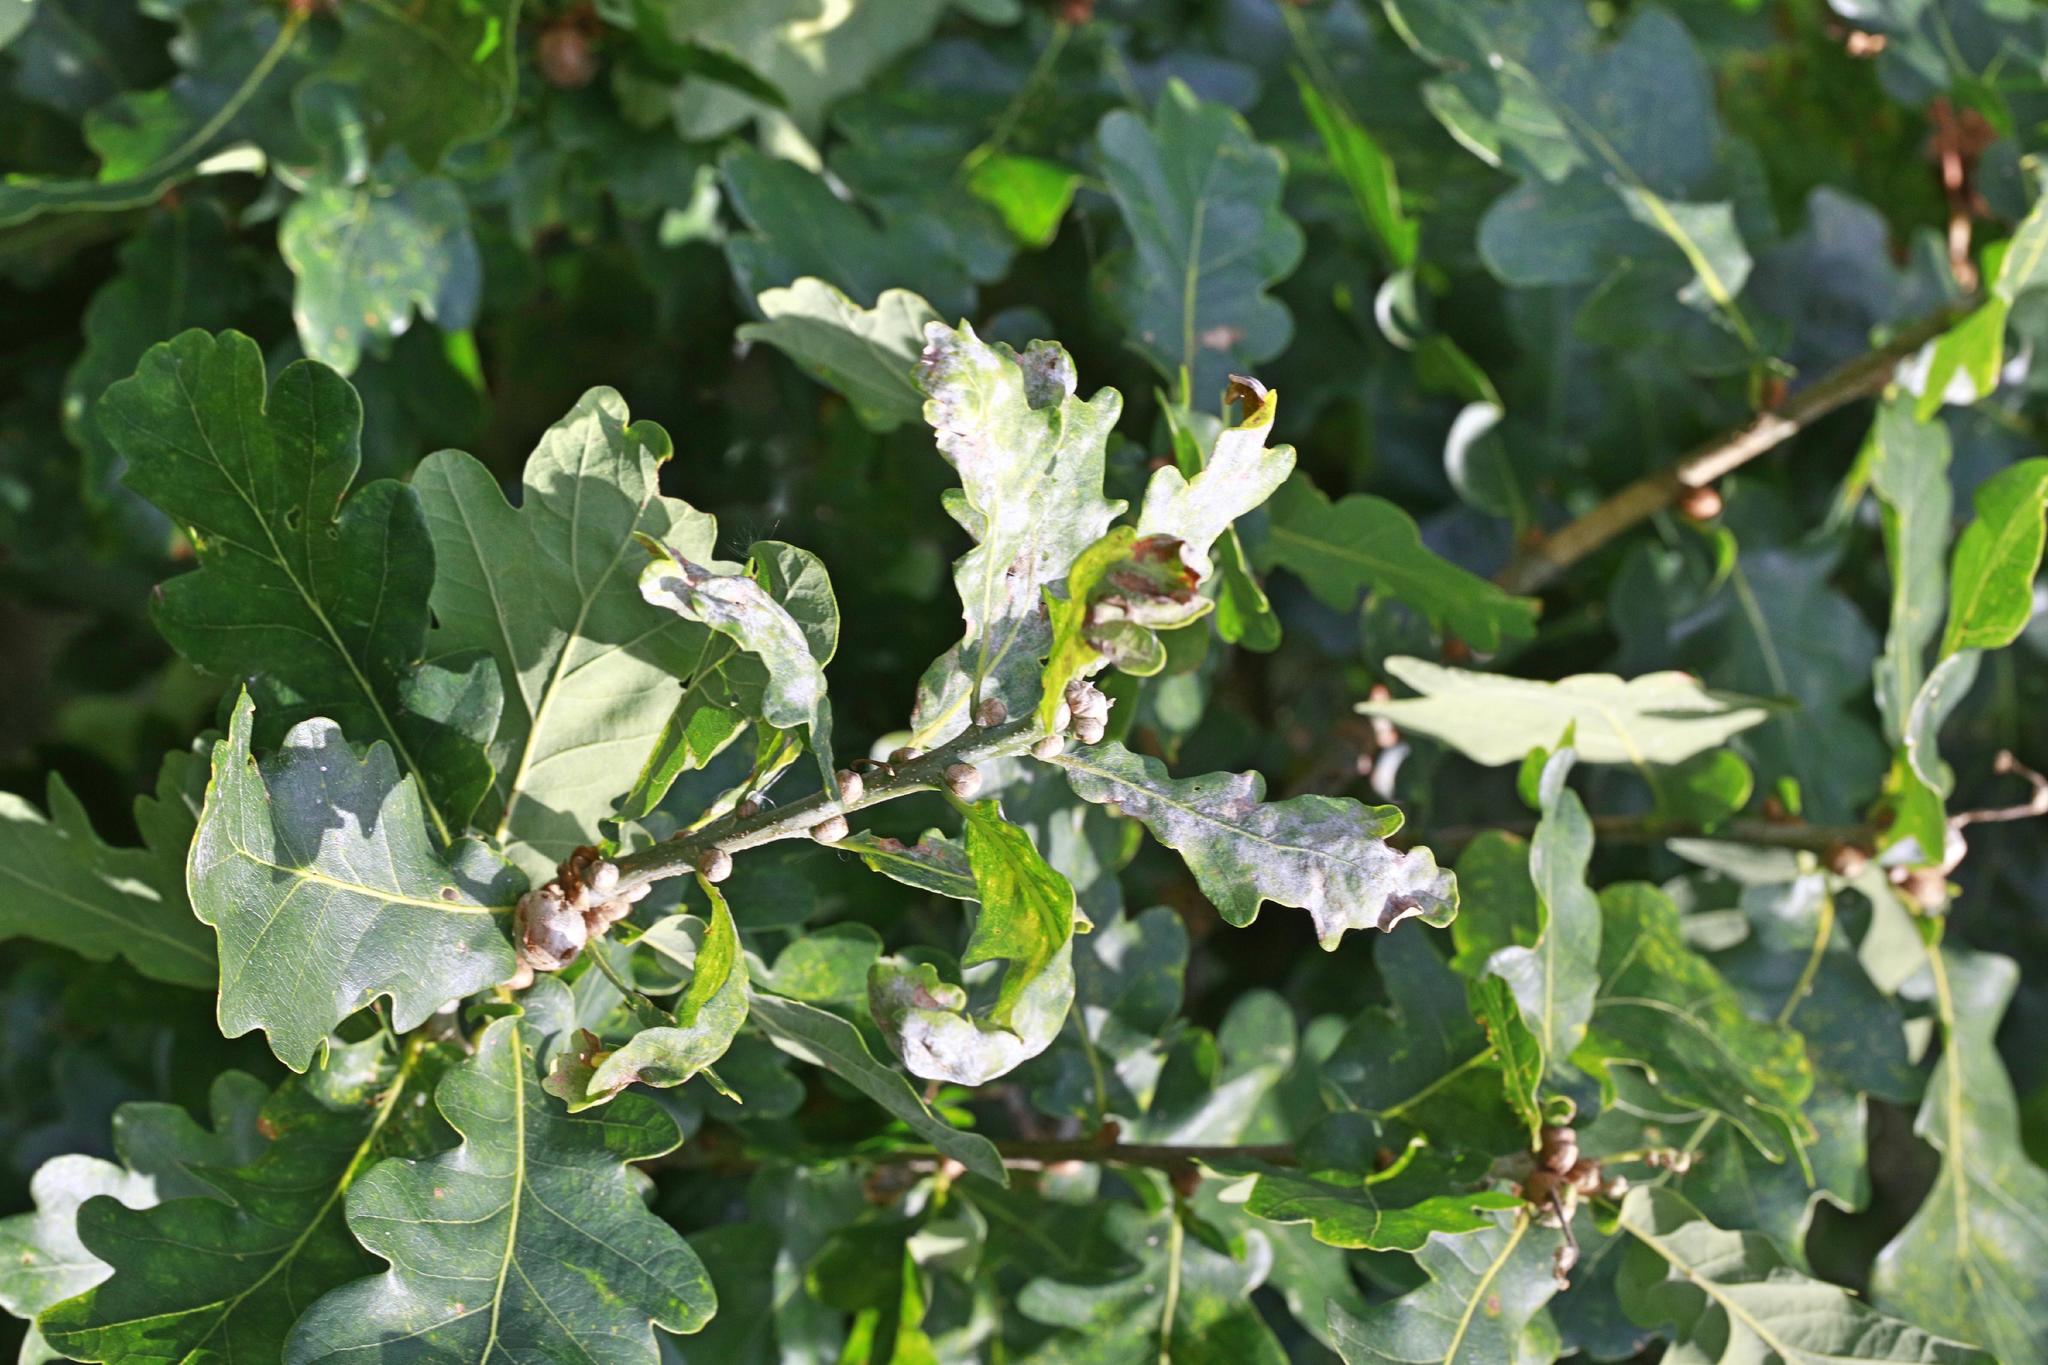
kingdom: Fungi
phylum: Ascomycota
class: Leotiomycetes
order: Helotiales
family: Erysiphaceae
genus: Erysiphe
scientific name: Erysiphe alphitoides
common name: Oak mildew
